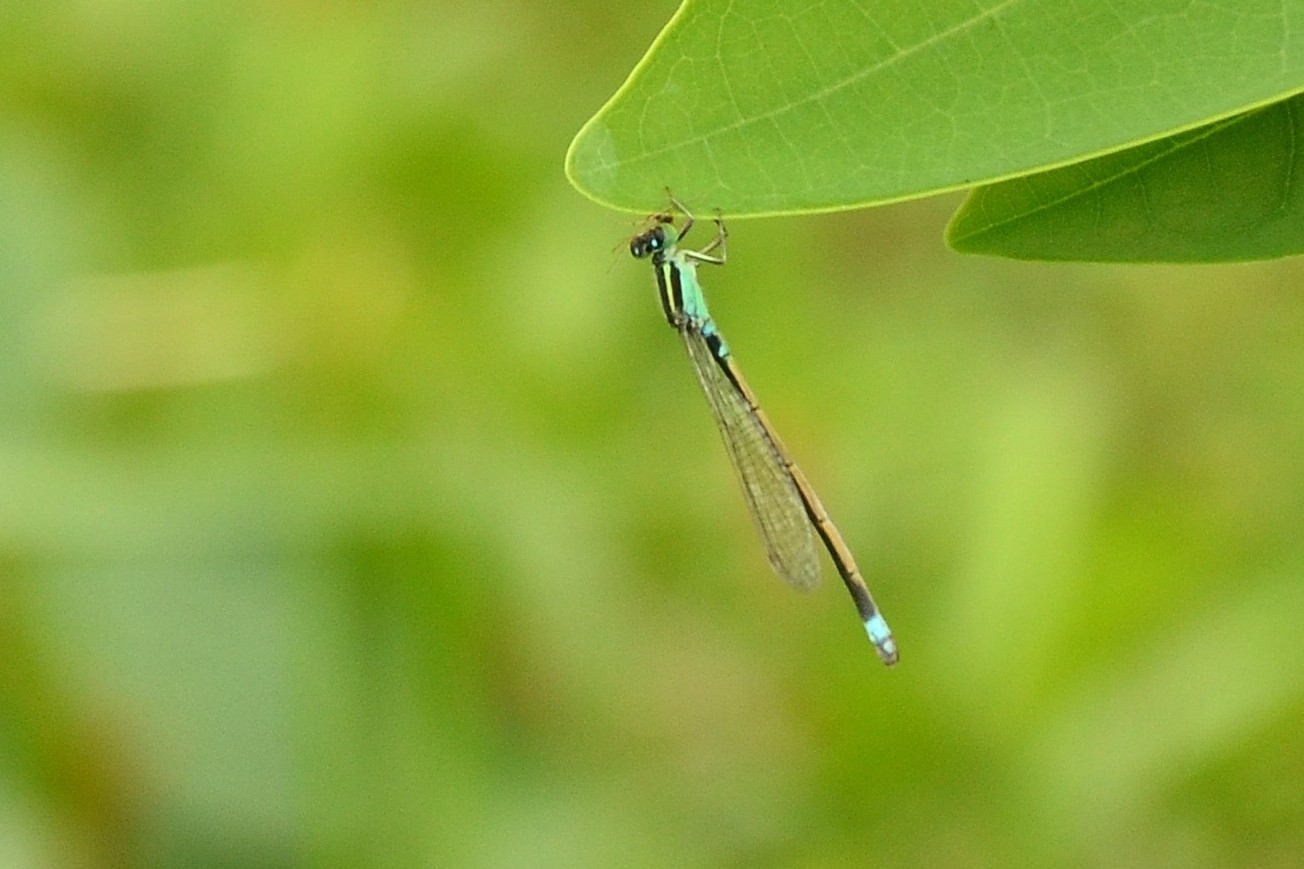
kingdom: Animalia
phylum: Arthropoda
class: Insecta
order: Odonata
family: Coenagrionidae
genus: Ischnura
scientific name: Ischnura senegalensis
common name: Tropical bluetail
